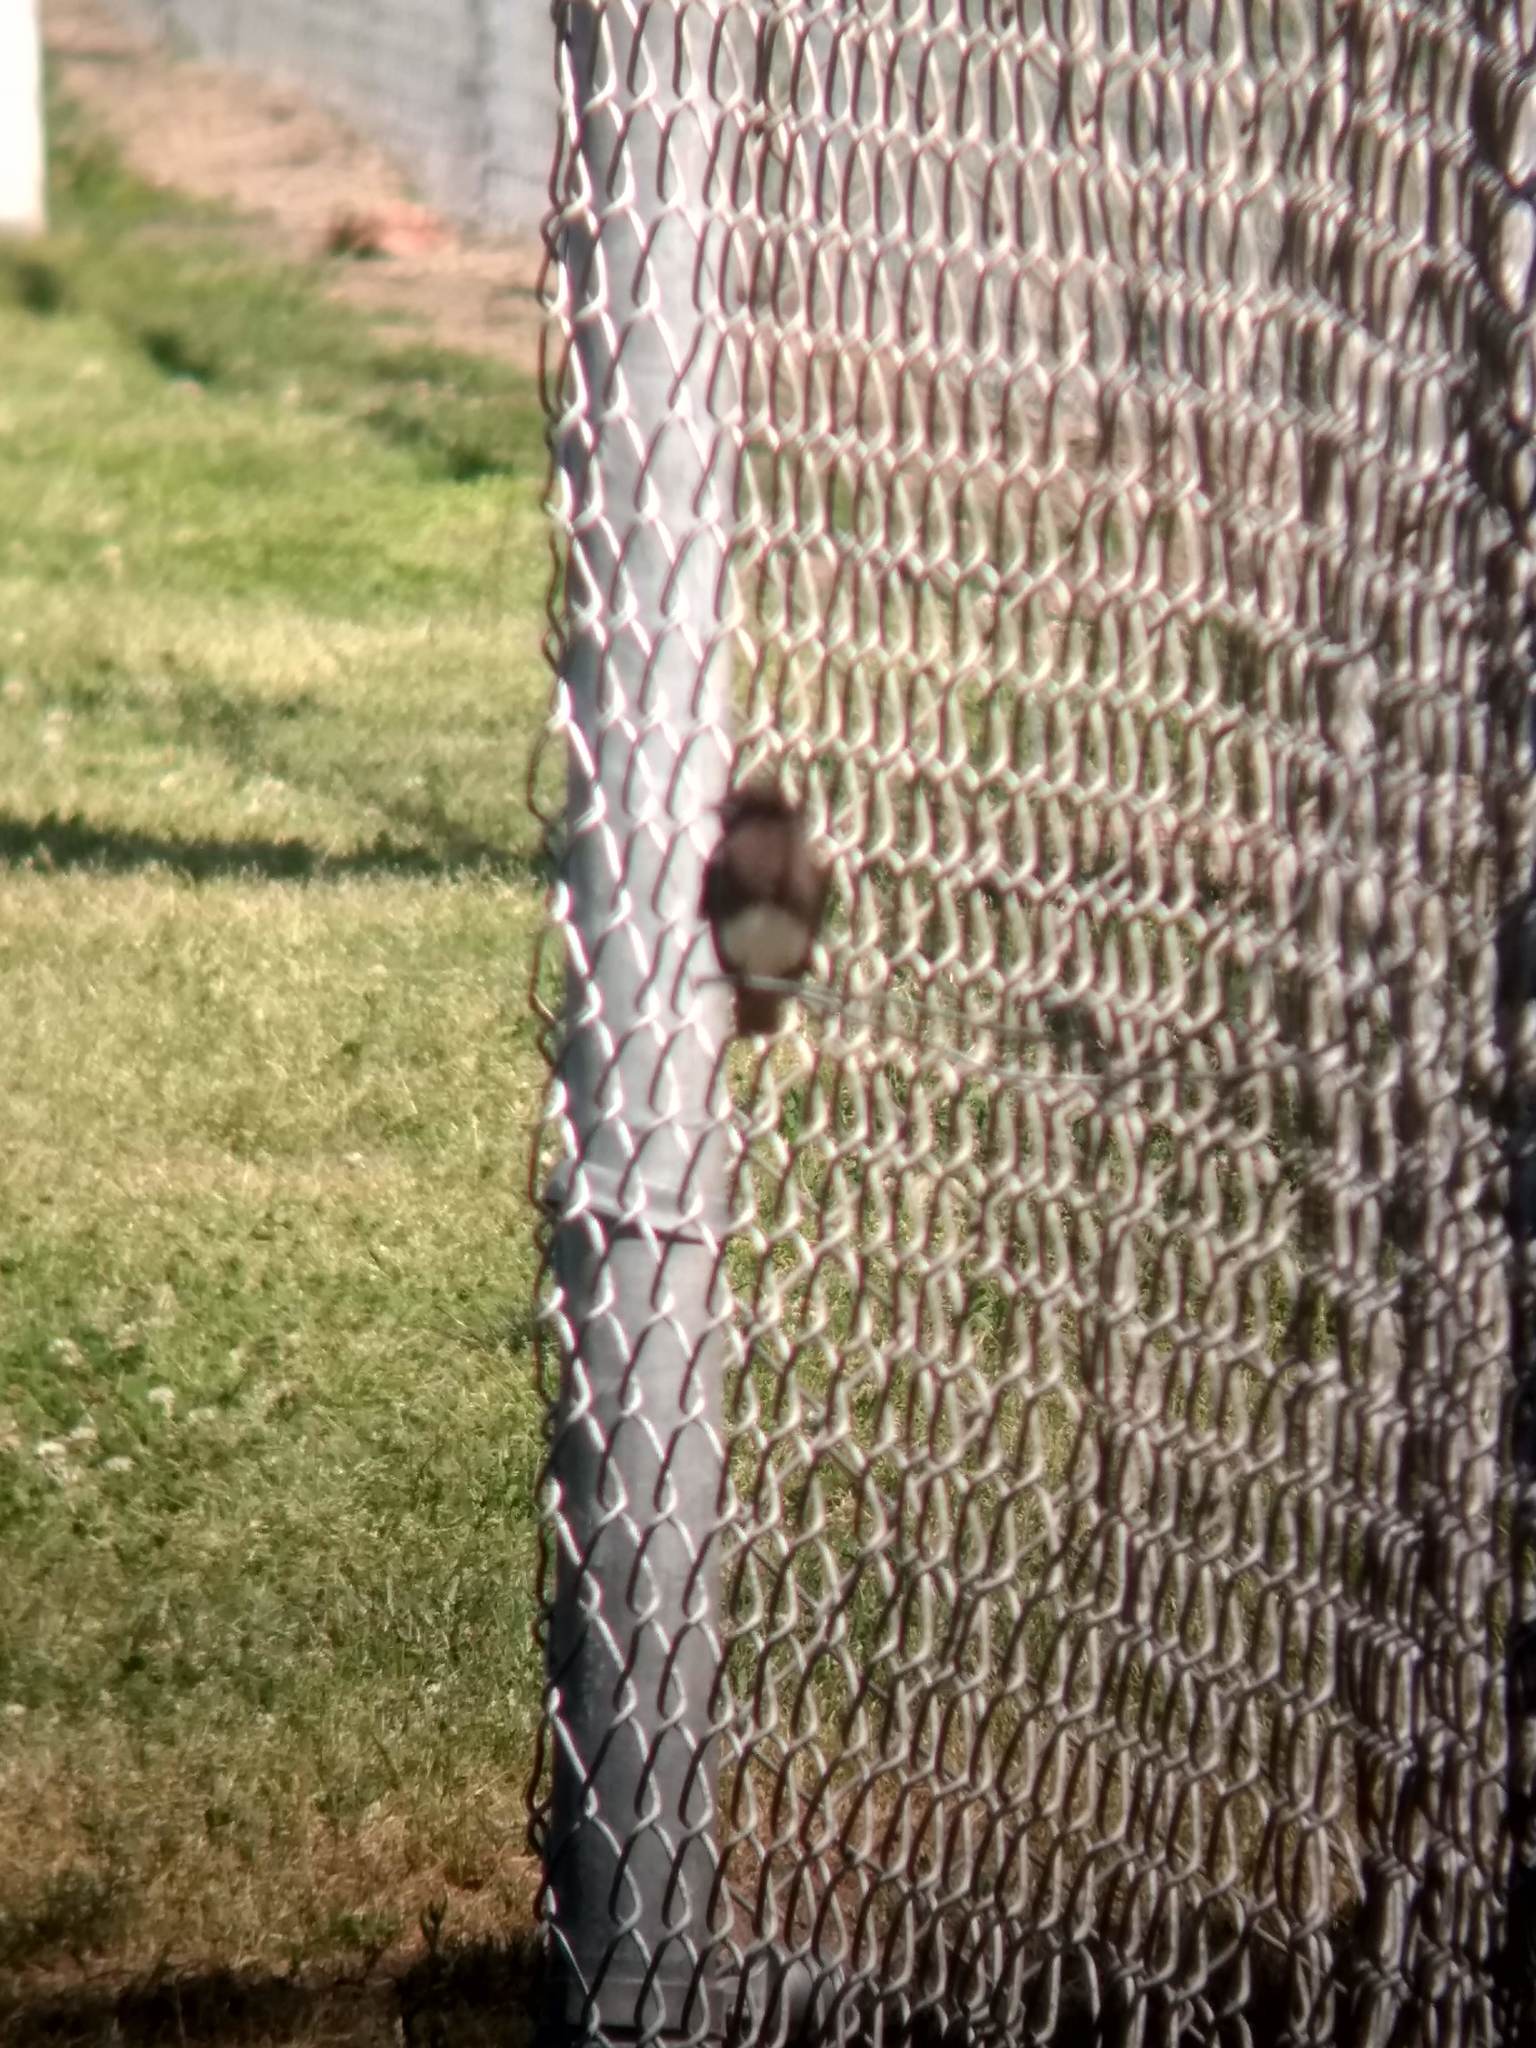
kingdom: Animalia
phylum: Chordata
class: Aves
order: Passeriformes
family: Tyrannidae
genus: Sayornis
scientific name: Sayornis nigricans
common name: Black phoebe
